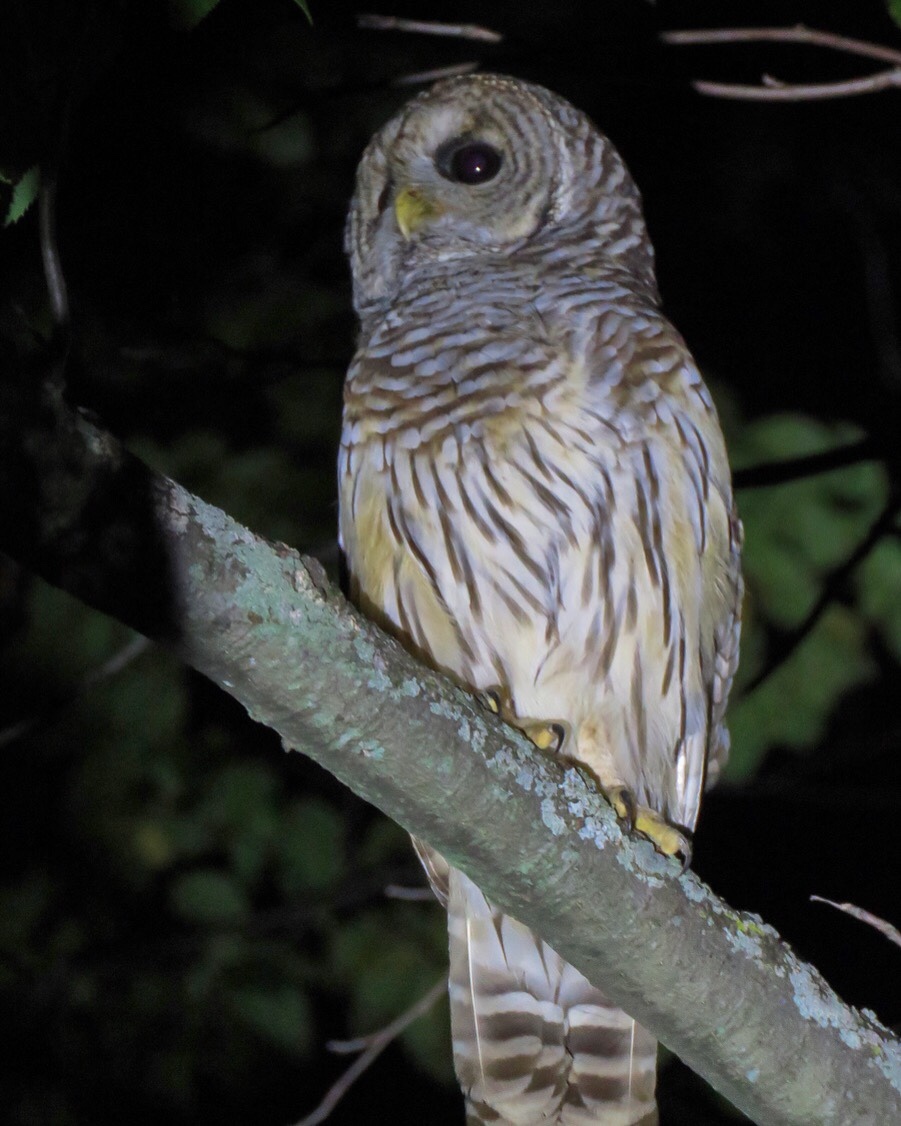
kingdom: Animalia
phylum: Chordata
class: Aves
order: Strigiformes
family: Strigidae
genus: Strix
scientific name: Strix varia
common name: Barred owl
